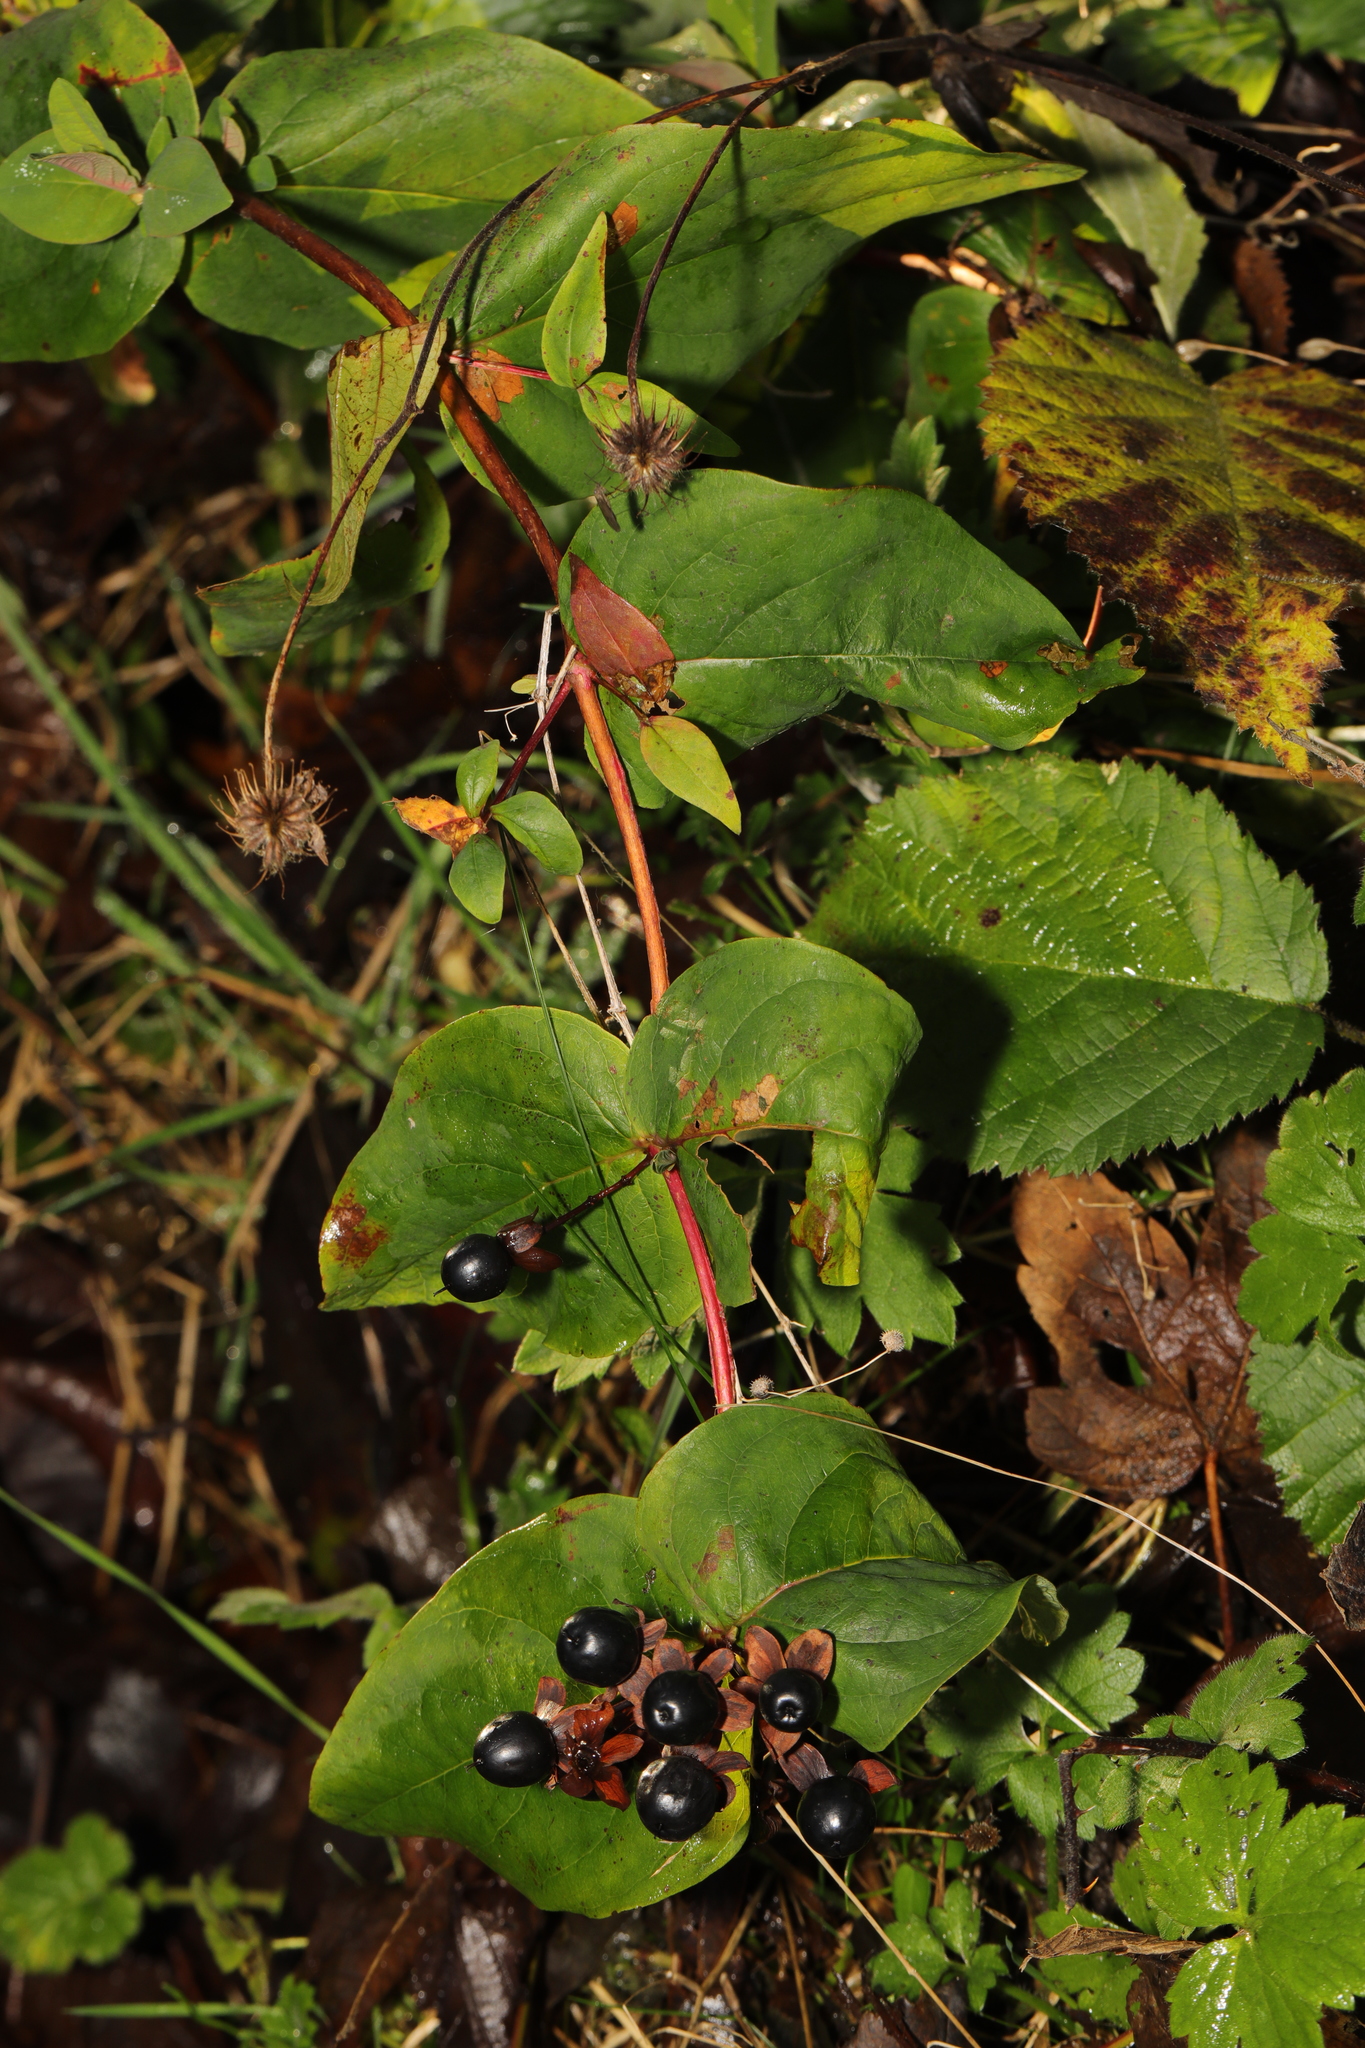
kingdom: Plantae
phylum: Tracheophyta
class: Magnoliopsida
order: Malpighiales
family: Hypericaceae
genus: Hypericum
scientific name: Hypericum androsaemum
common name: Sweet-amber
